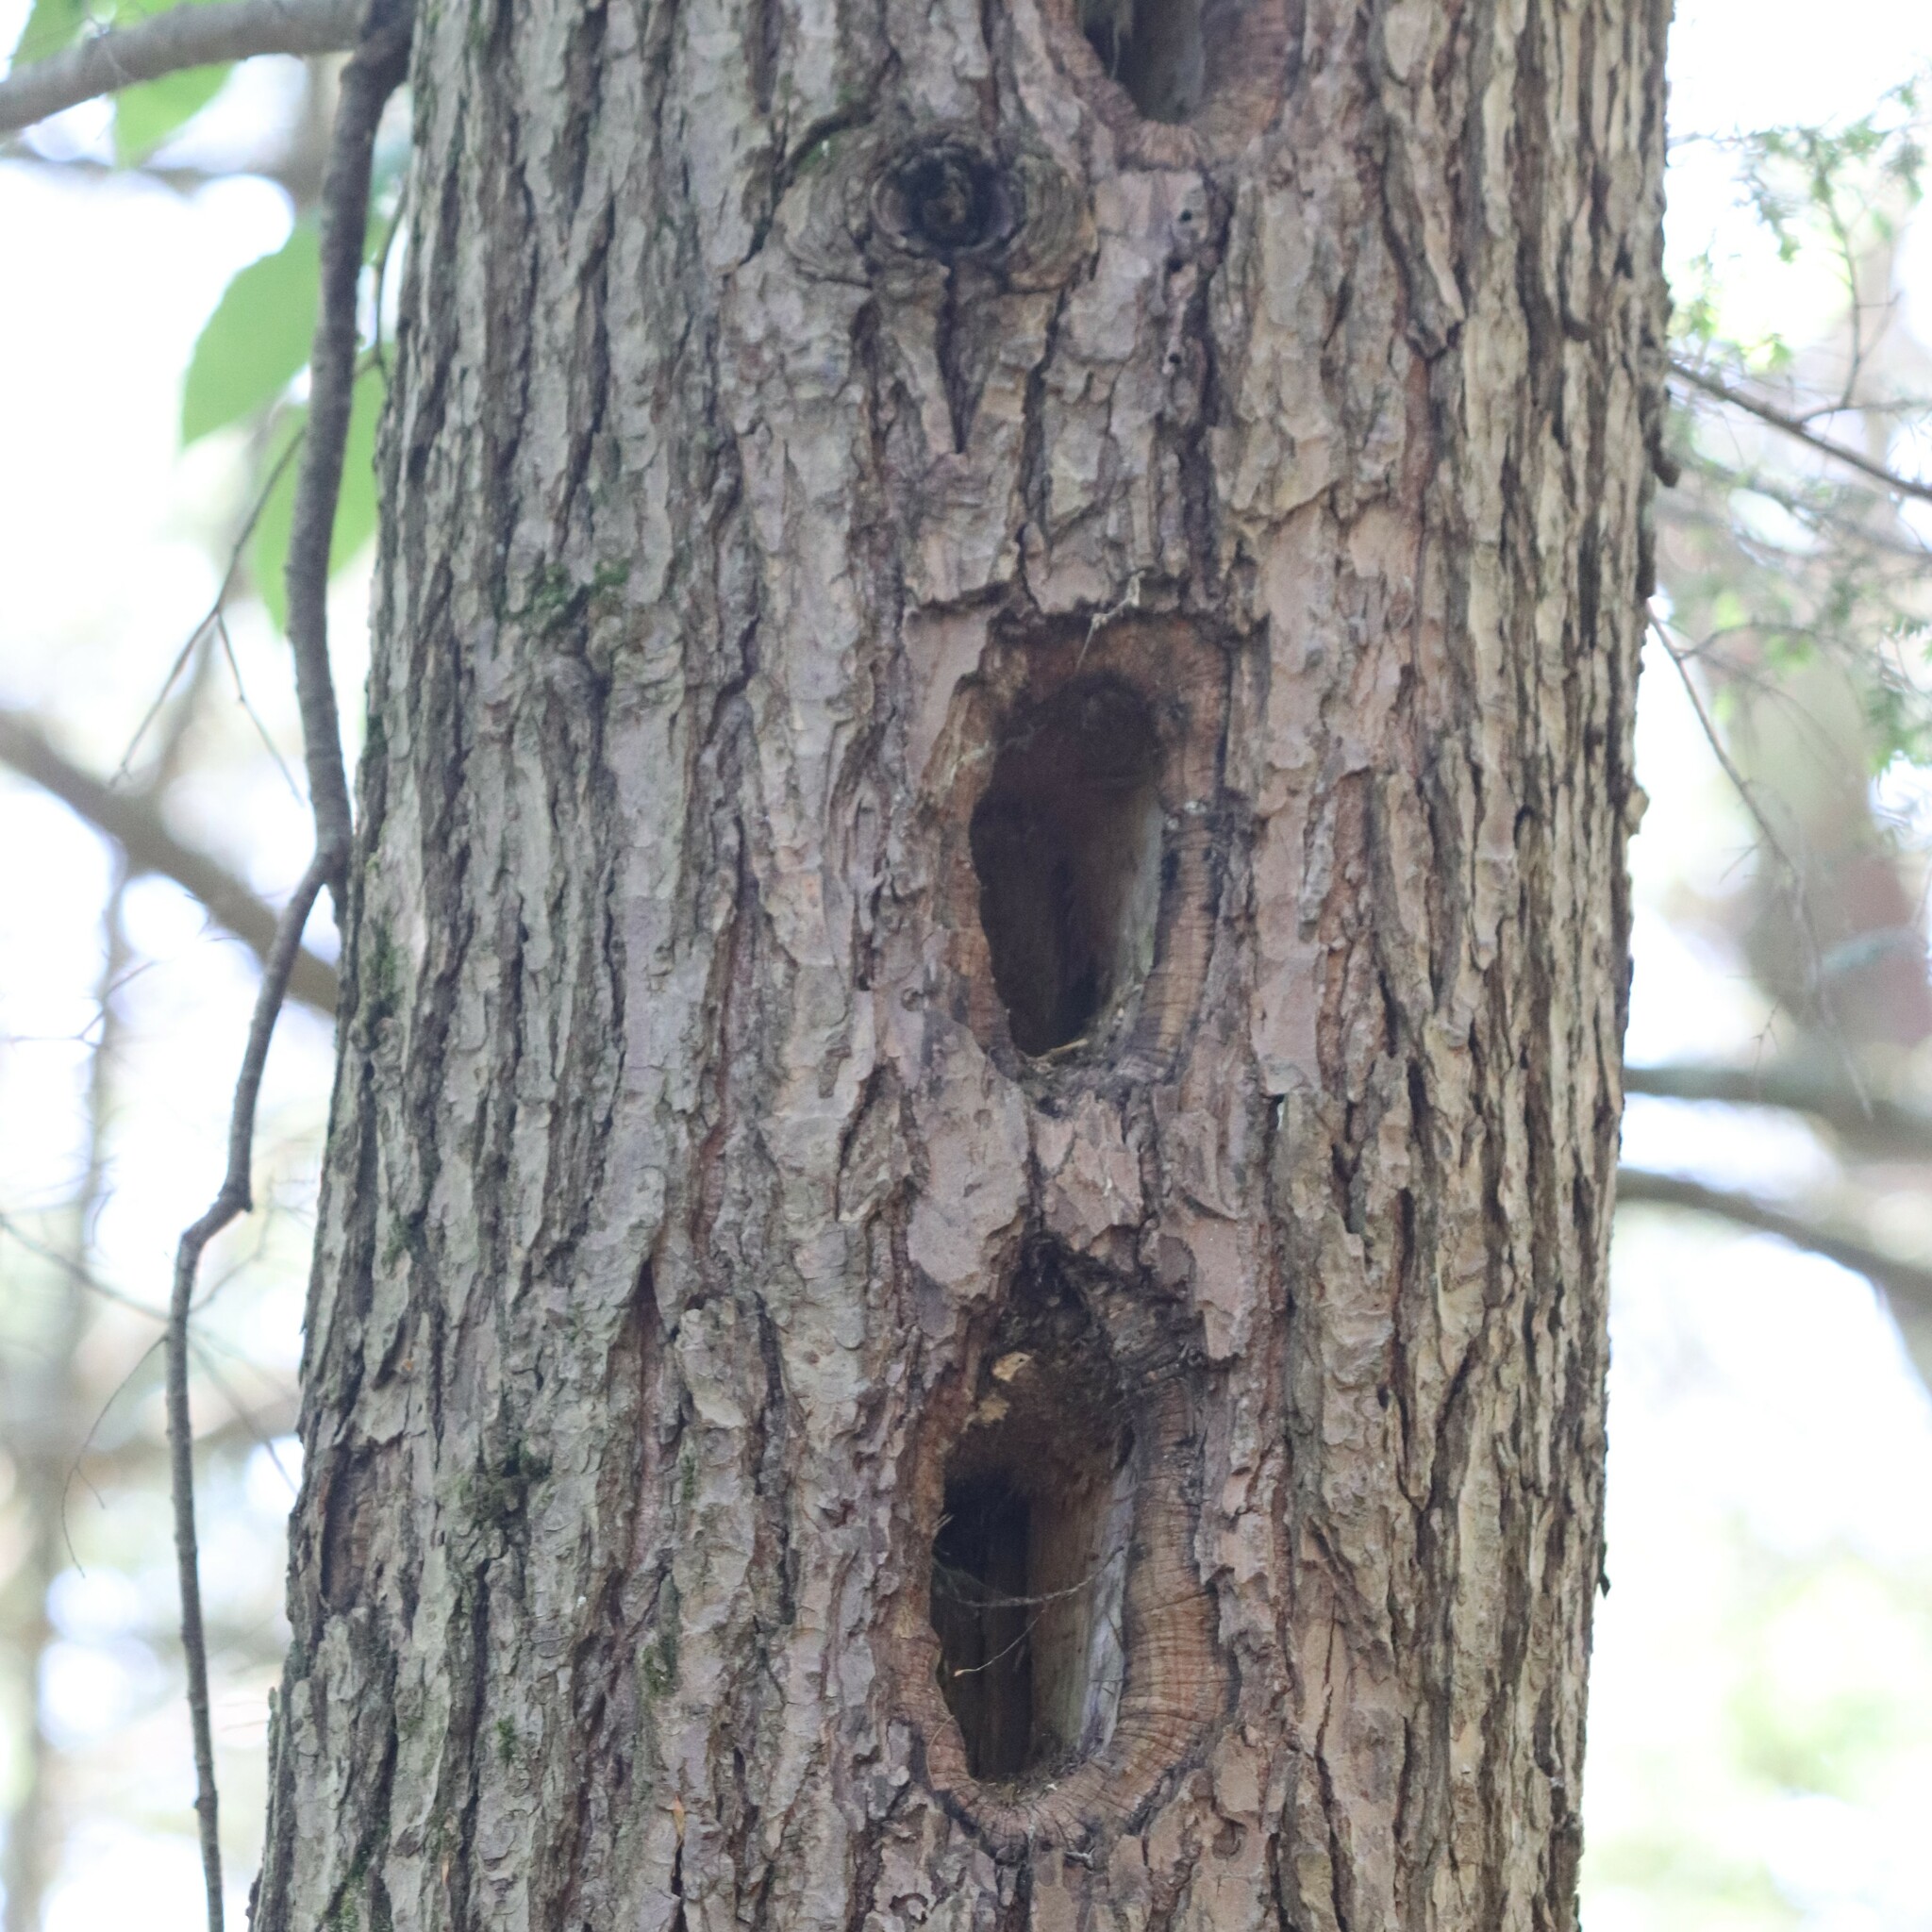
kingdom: Animalia
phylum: Chordata
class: Aves
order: Piciformes
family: Picidae
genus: Dryocopus
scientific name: Dryocopus pileatus
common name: Pileated woodpecker
